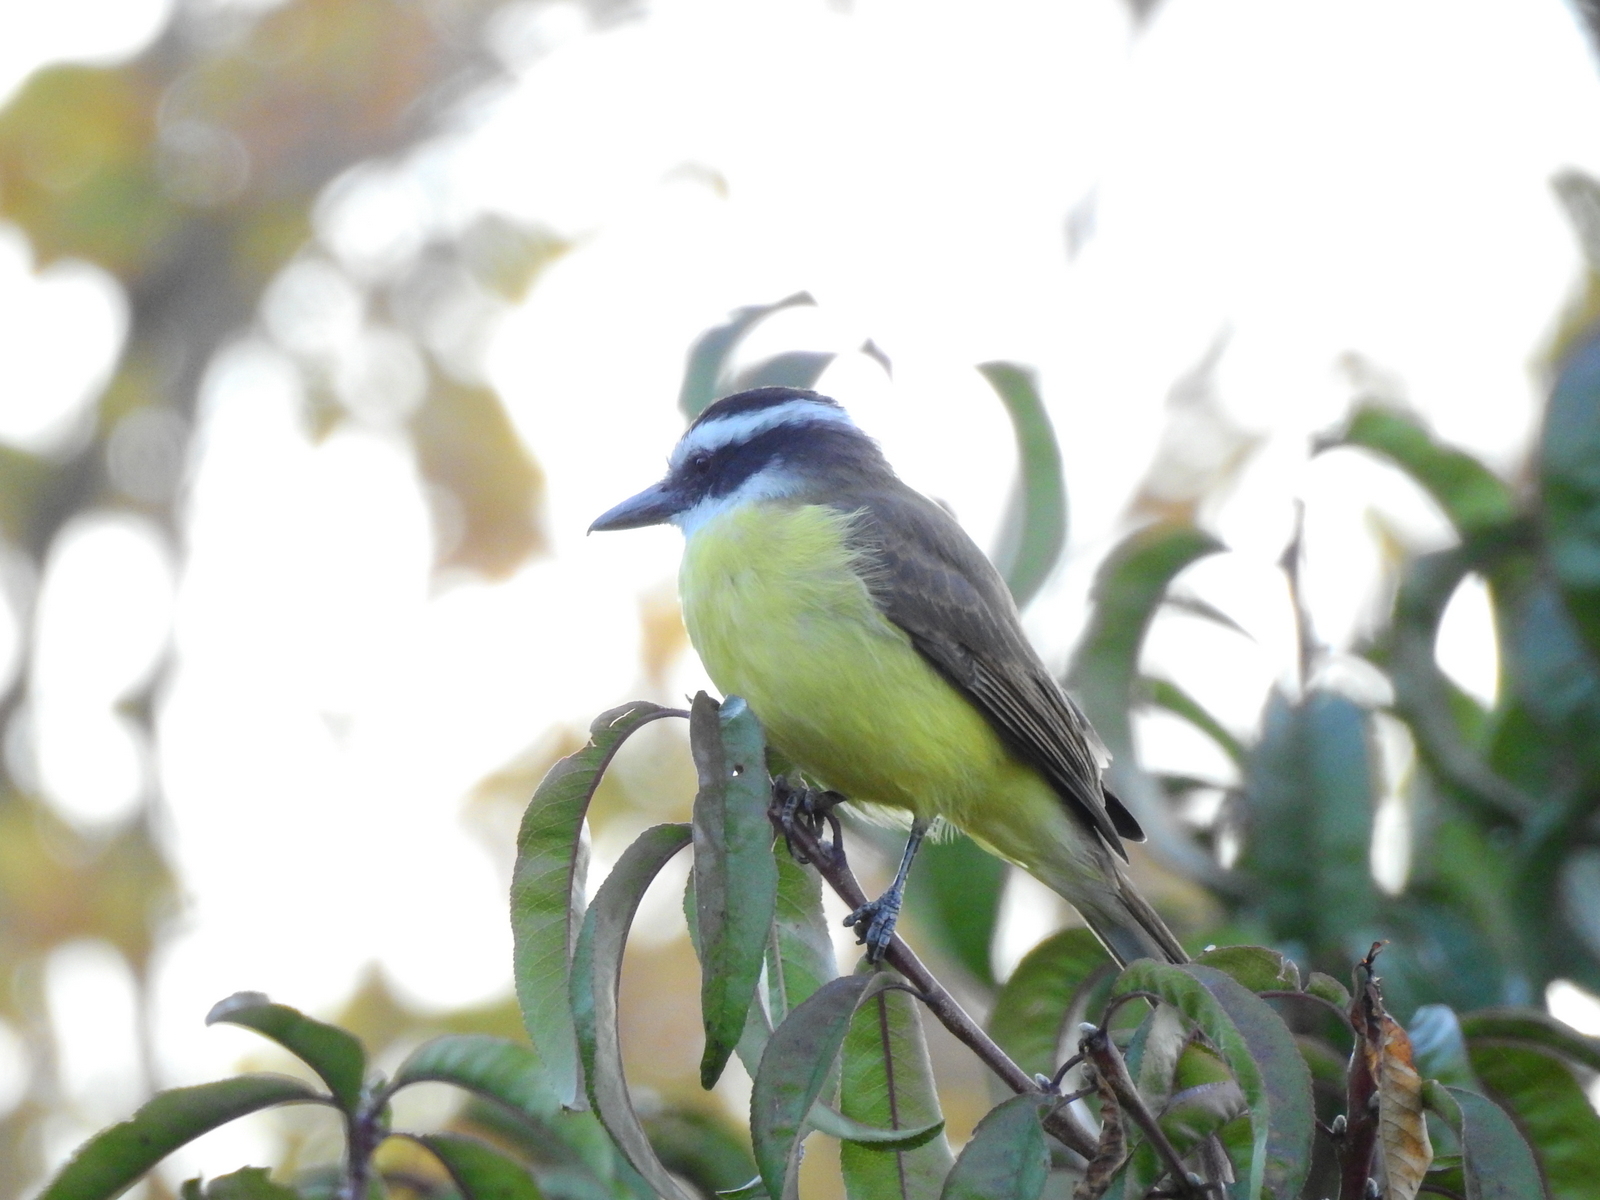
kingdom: Animalia
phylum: Chordata
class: Aves
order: Passeriformes
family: Tyrannidae
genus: Pitangus
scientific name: Pitangus sulphuratus
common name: Great kiskadee
